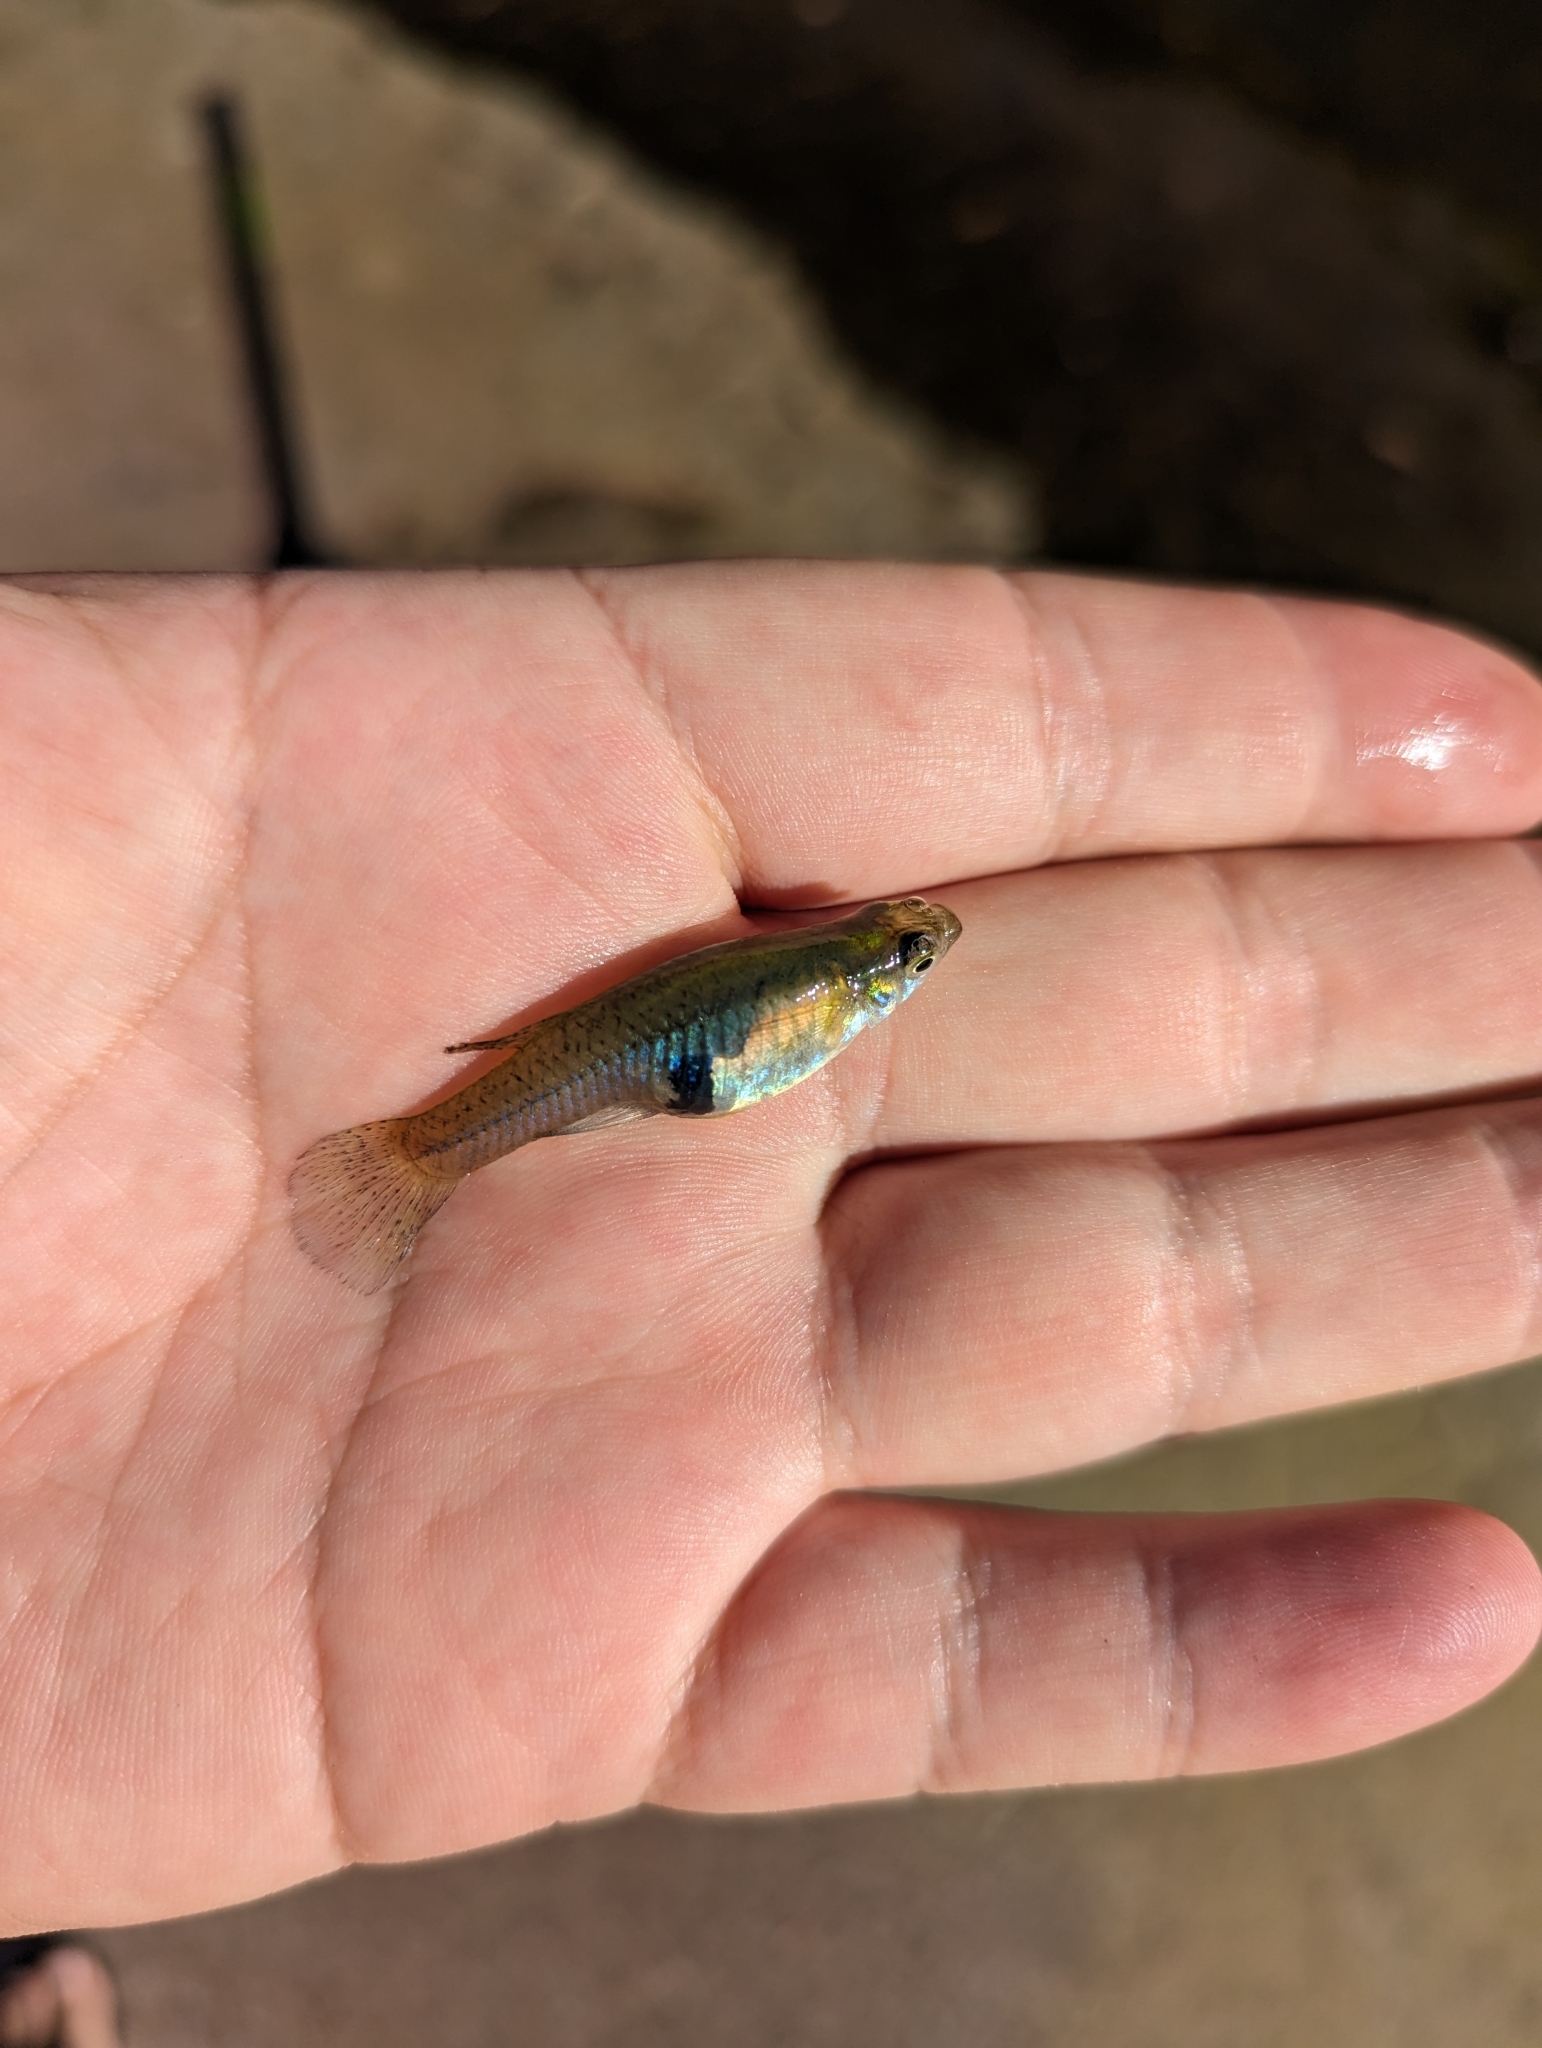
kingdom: Animalia
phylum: Chordata
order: Cyprinodontiformes
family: Poeciliidae
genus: Gambusia
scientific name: Gambusia holbrooki
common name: Eastern mosquitofish
